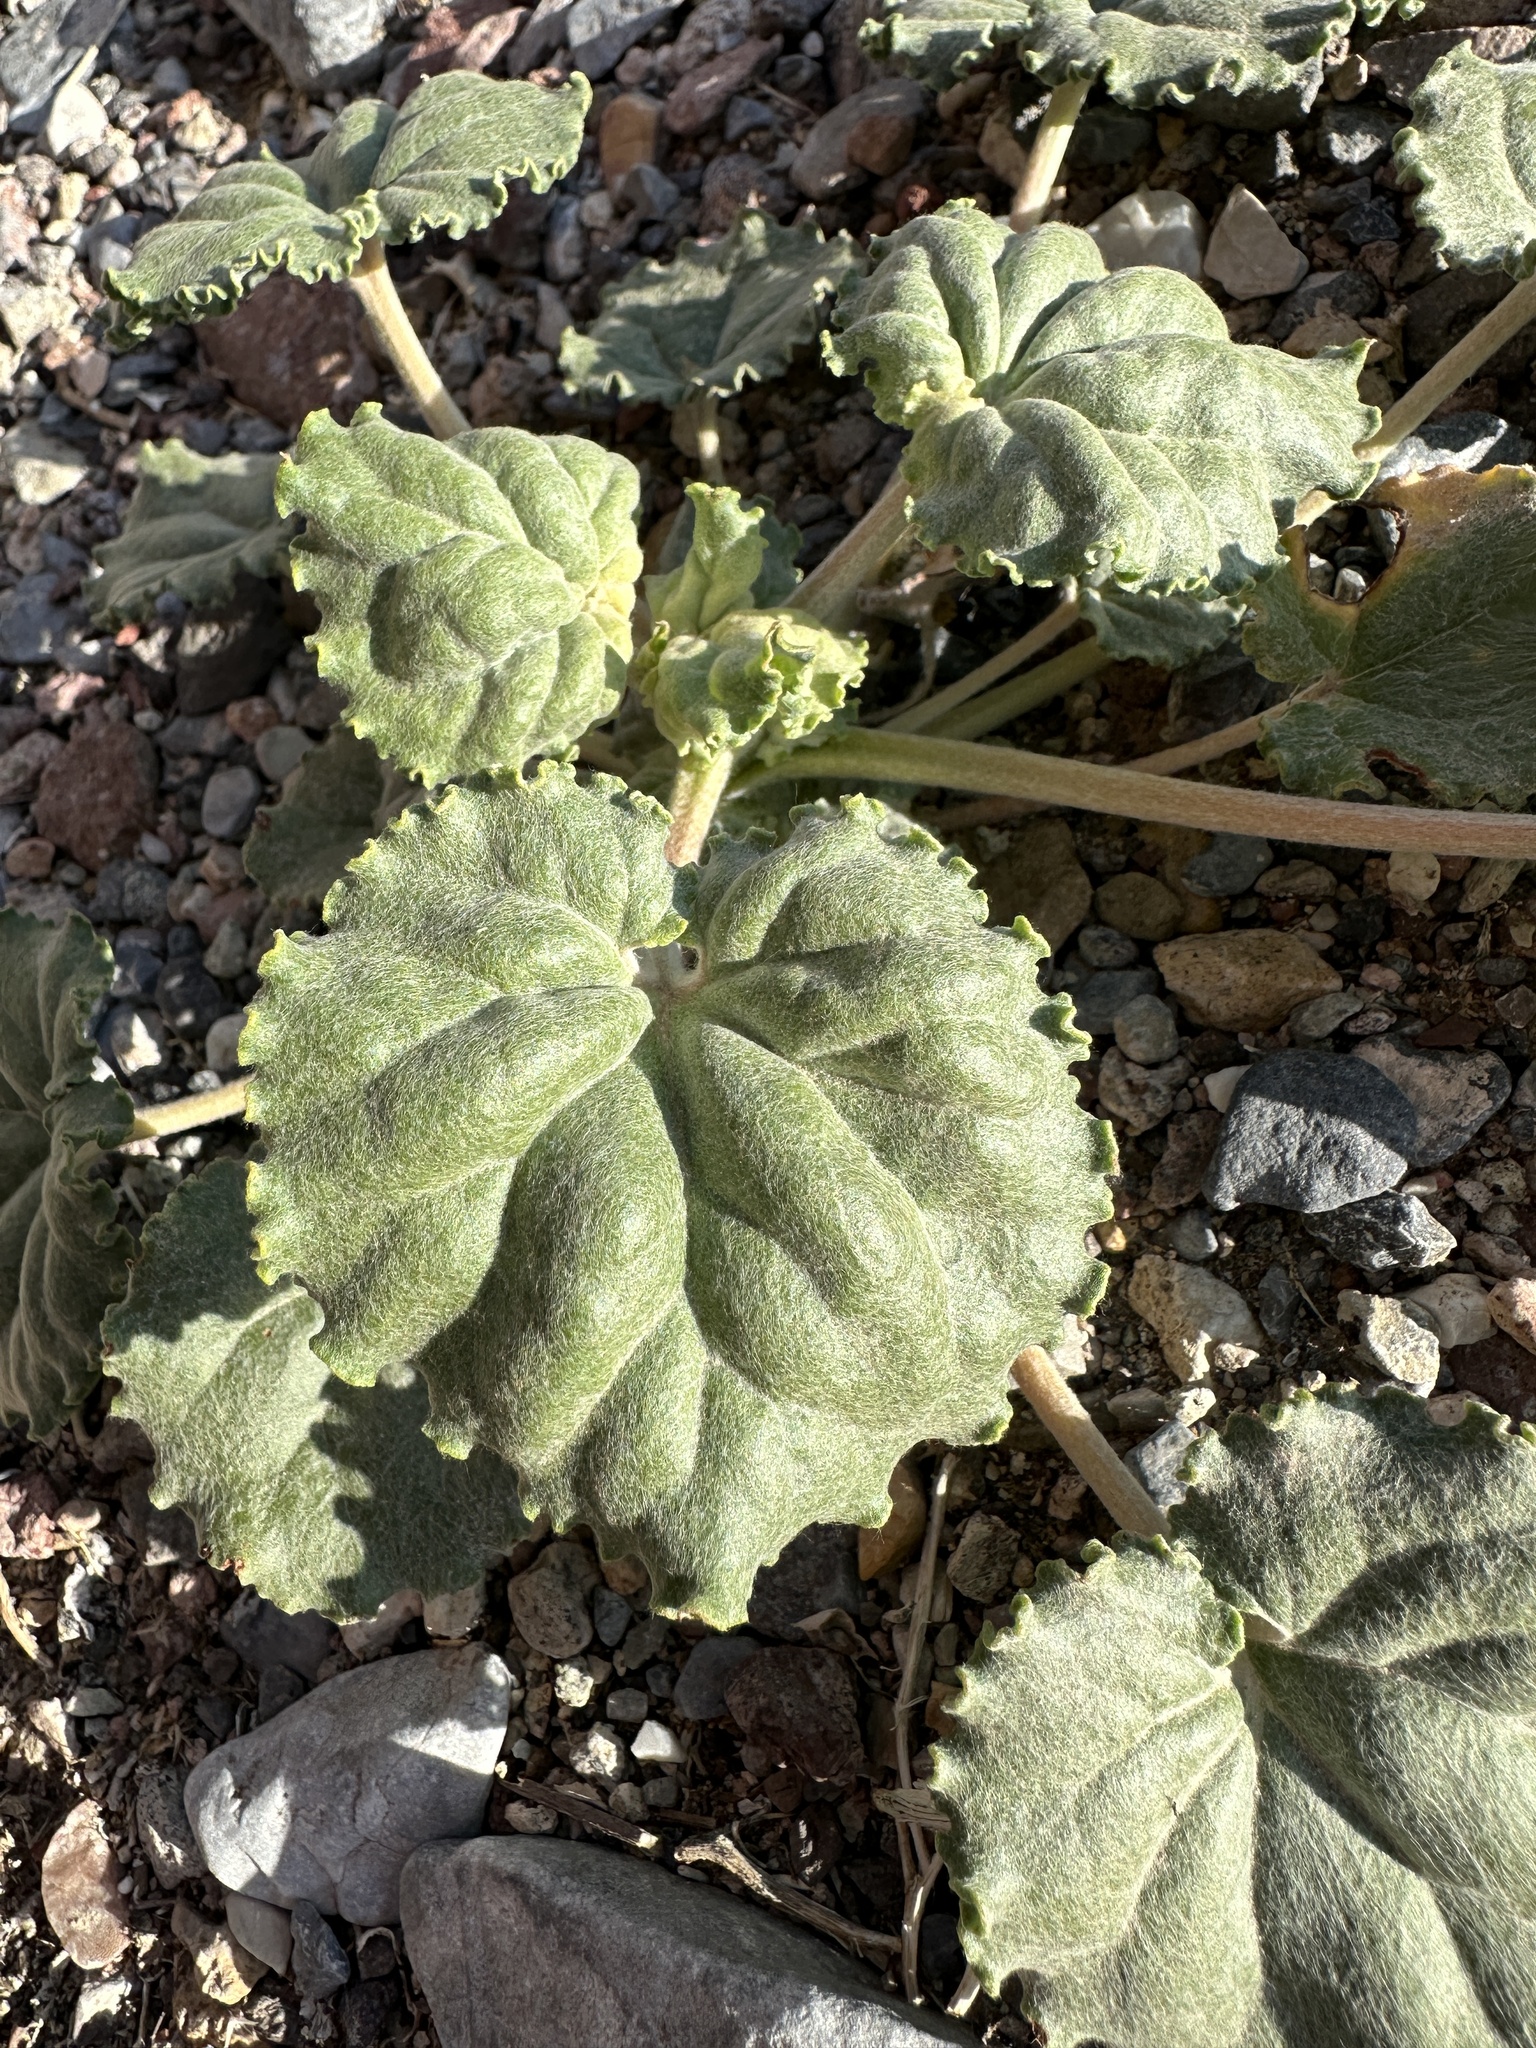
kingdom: Plantae
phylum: Tracheophyta
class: Magnoliopsida
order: Caryophyllales
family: Polygonaceae
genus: Eriogonum
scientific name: Eriogonum hoffmannii
